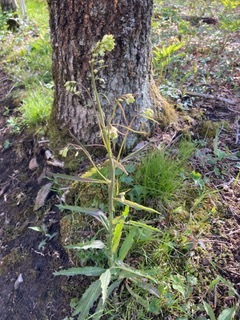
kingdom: Plantae
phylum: Tracheophyta
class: Magnoliopsida
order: Brassicales
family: Brassicaceae
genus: Borodinia
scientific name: Borodinia laevigata
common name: Smooth rockcress
